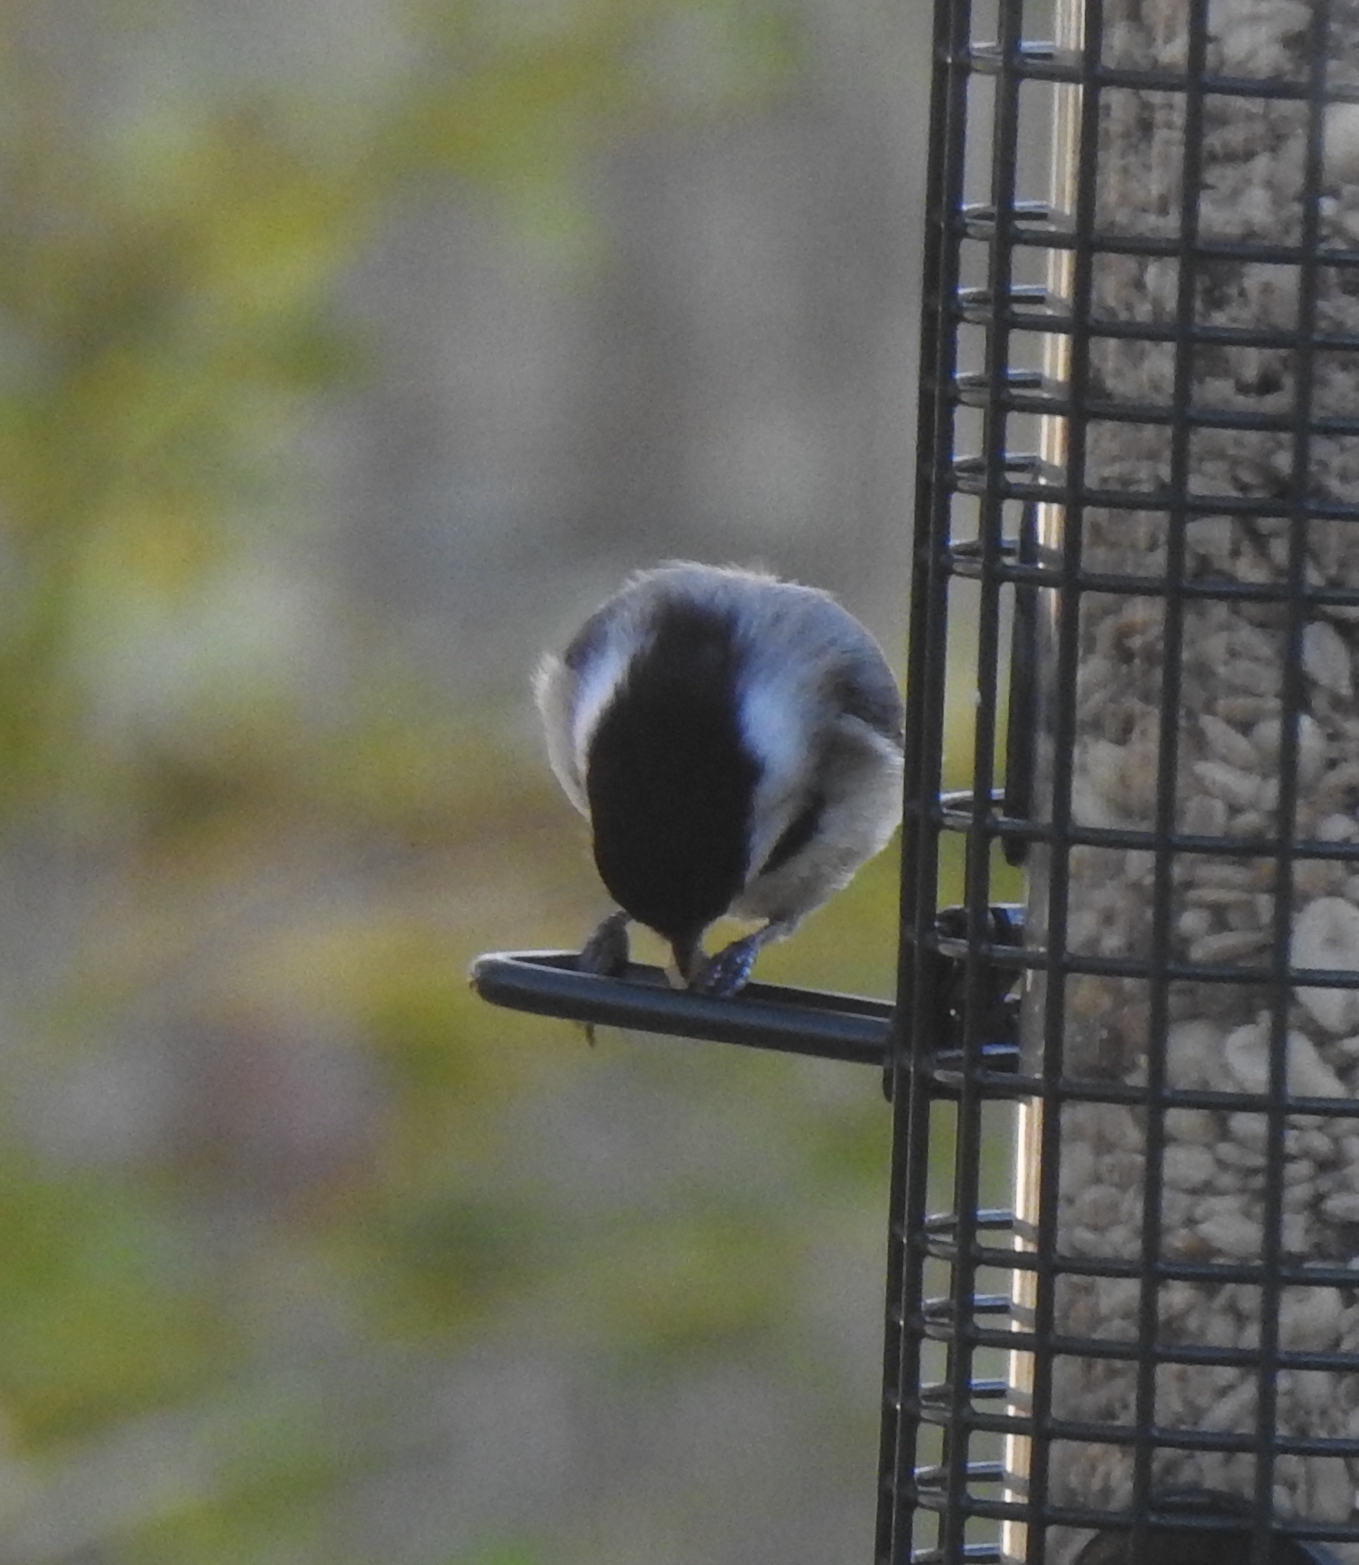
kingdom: Animalia
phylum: Chordata
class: Aves
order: Passeriformes
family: Paridae
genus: Poecile
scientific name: Poecile atricapillus
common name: Black-capped chickadee
